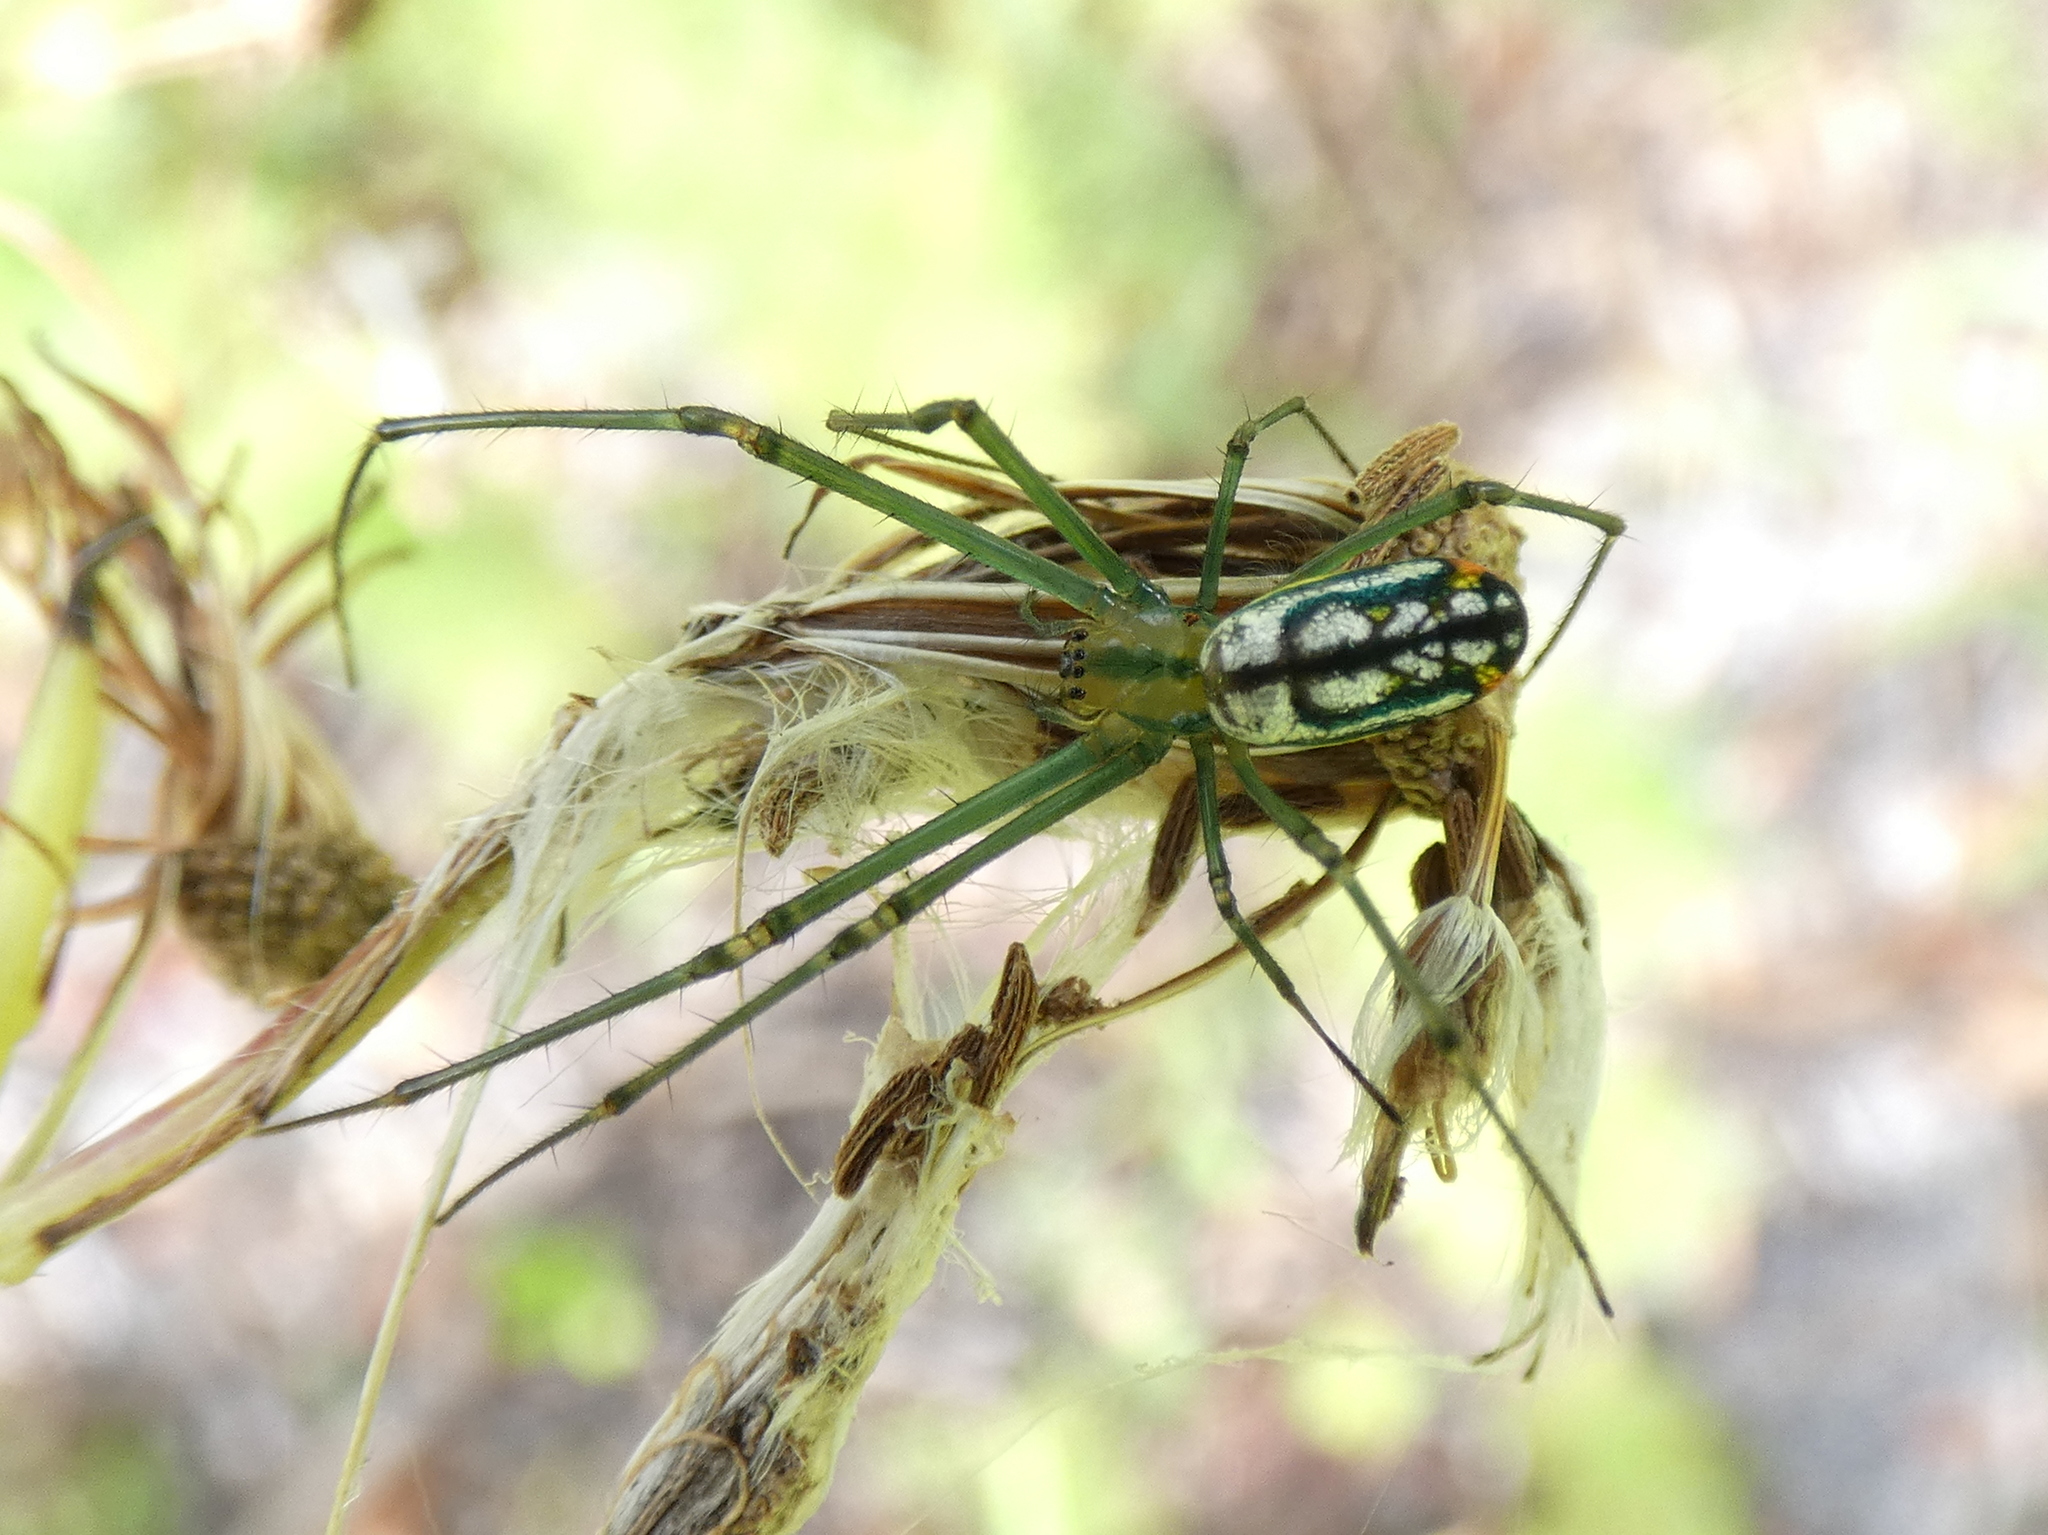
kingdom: Animalia
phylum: Arthropoda
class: Arachnida
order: Araneae
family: Tetragnathidae
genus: Leucauge
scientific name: Leucauge argyrobapta
